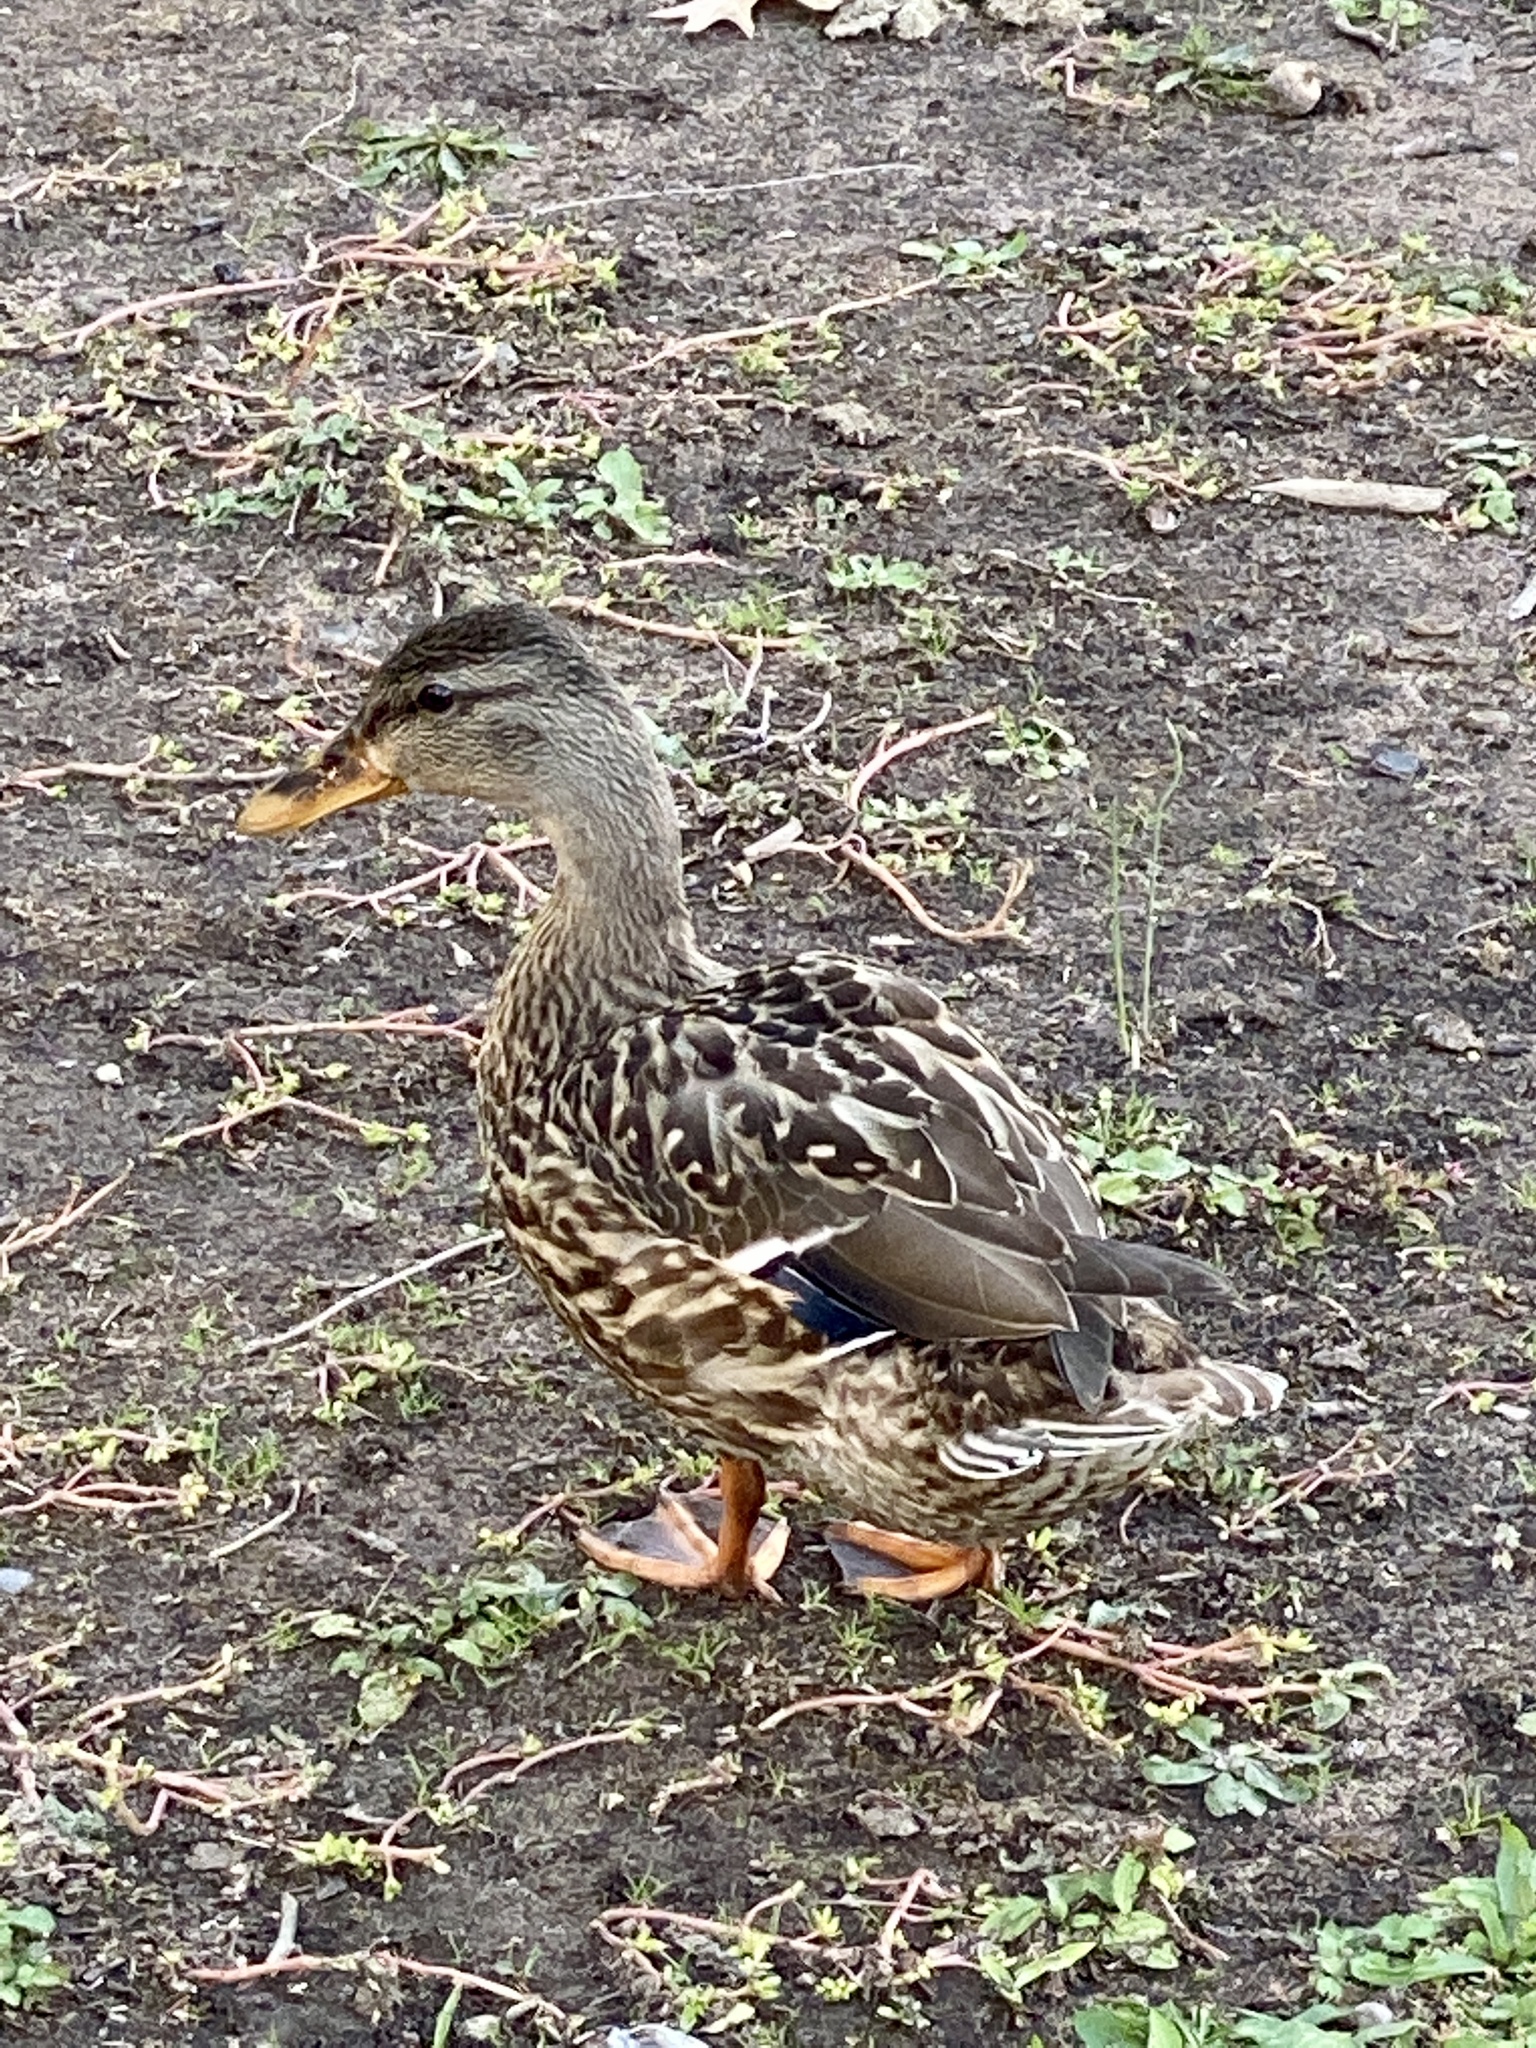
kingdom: Animalia
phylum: Chordata
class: Aves
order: Anseriformes
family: Anatidae
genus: Anas
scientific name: Anas platyrhynchos
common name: Mallard
